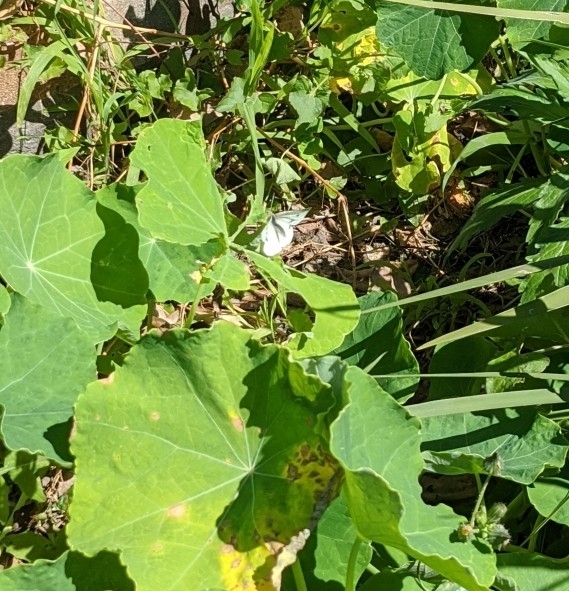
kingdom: Animalia
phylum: Arthropoda
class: Insecta
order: Lepidoptera
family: Pieridae
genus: Pieris
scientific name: Pieris rapae
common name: Small white
